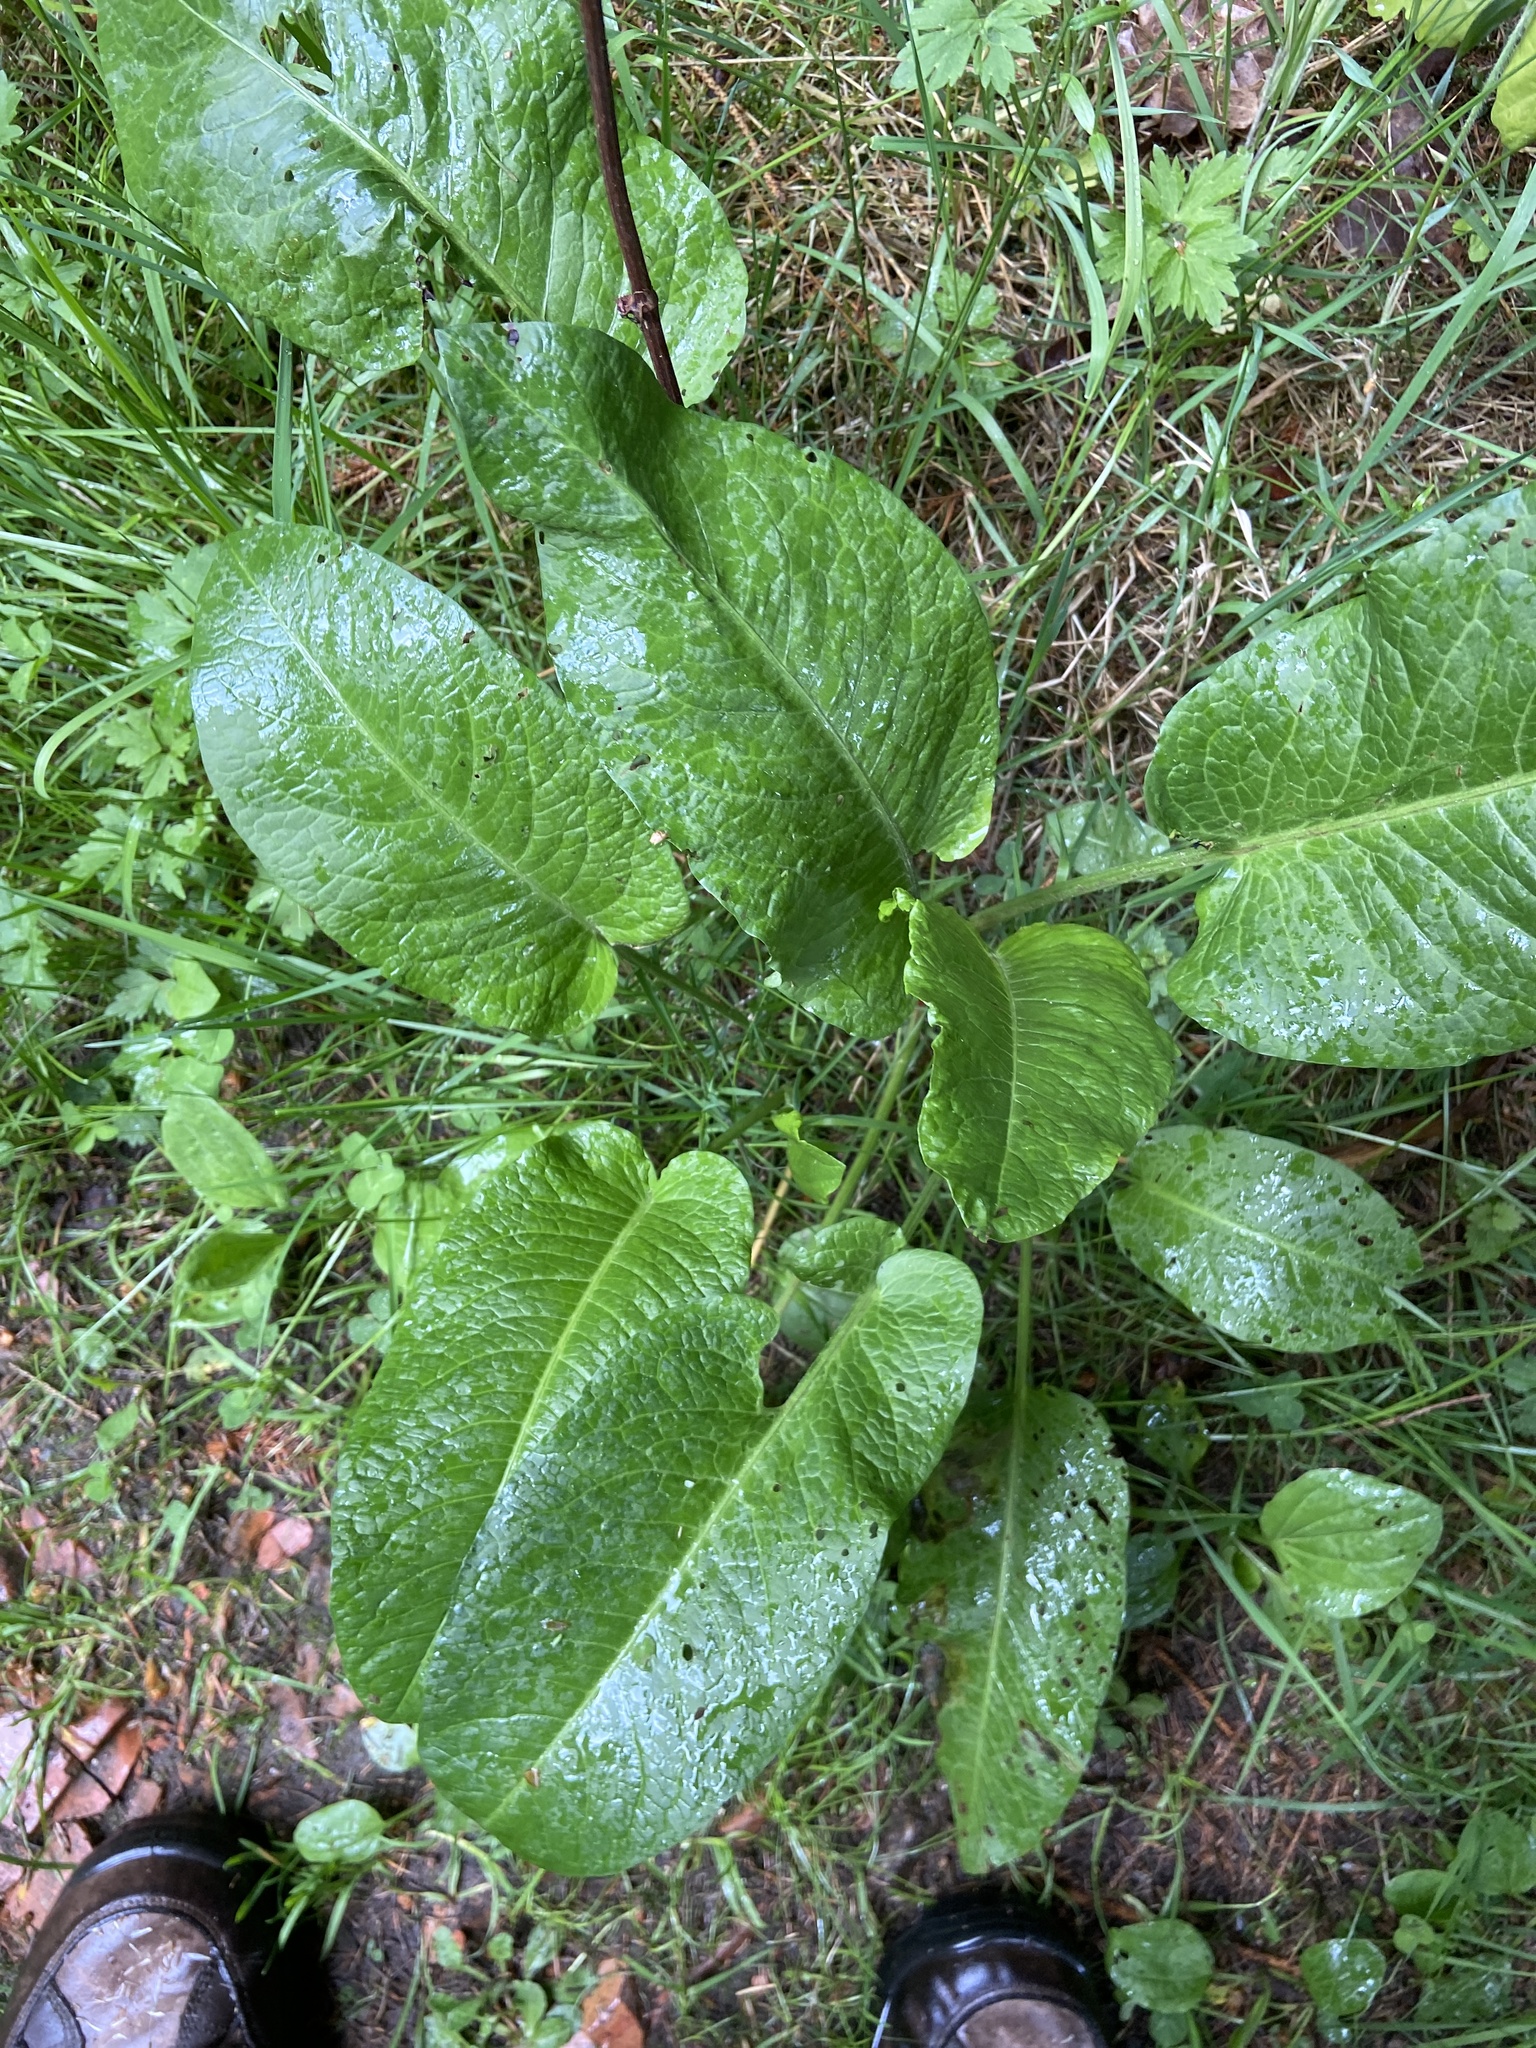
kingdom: Plantae
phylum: Tracheophyta
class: Magnoliopsida
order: Caryophyllales
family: Polygonaceae
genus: Rumex
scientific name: Rumex obtusifolius
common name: Bitter dock
